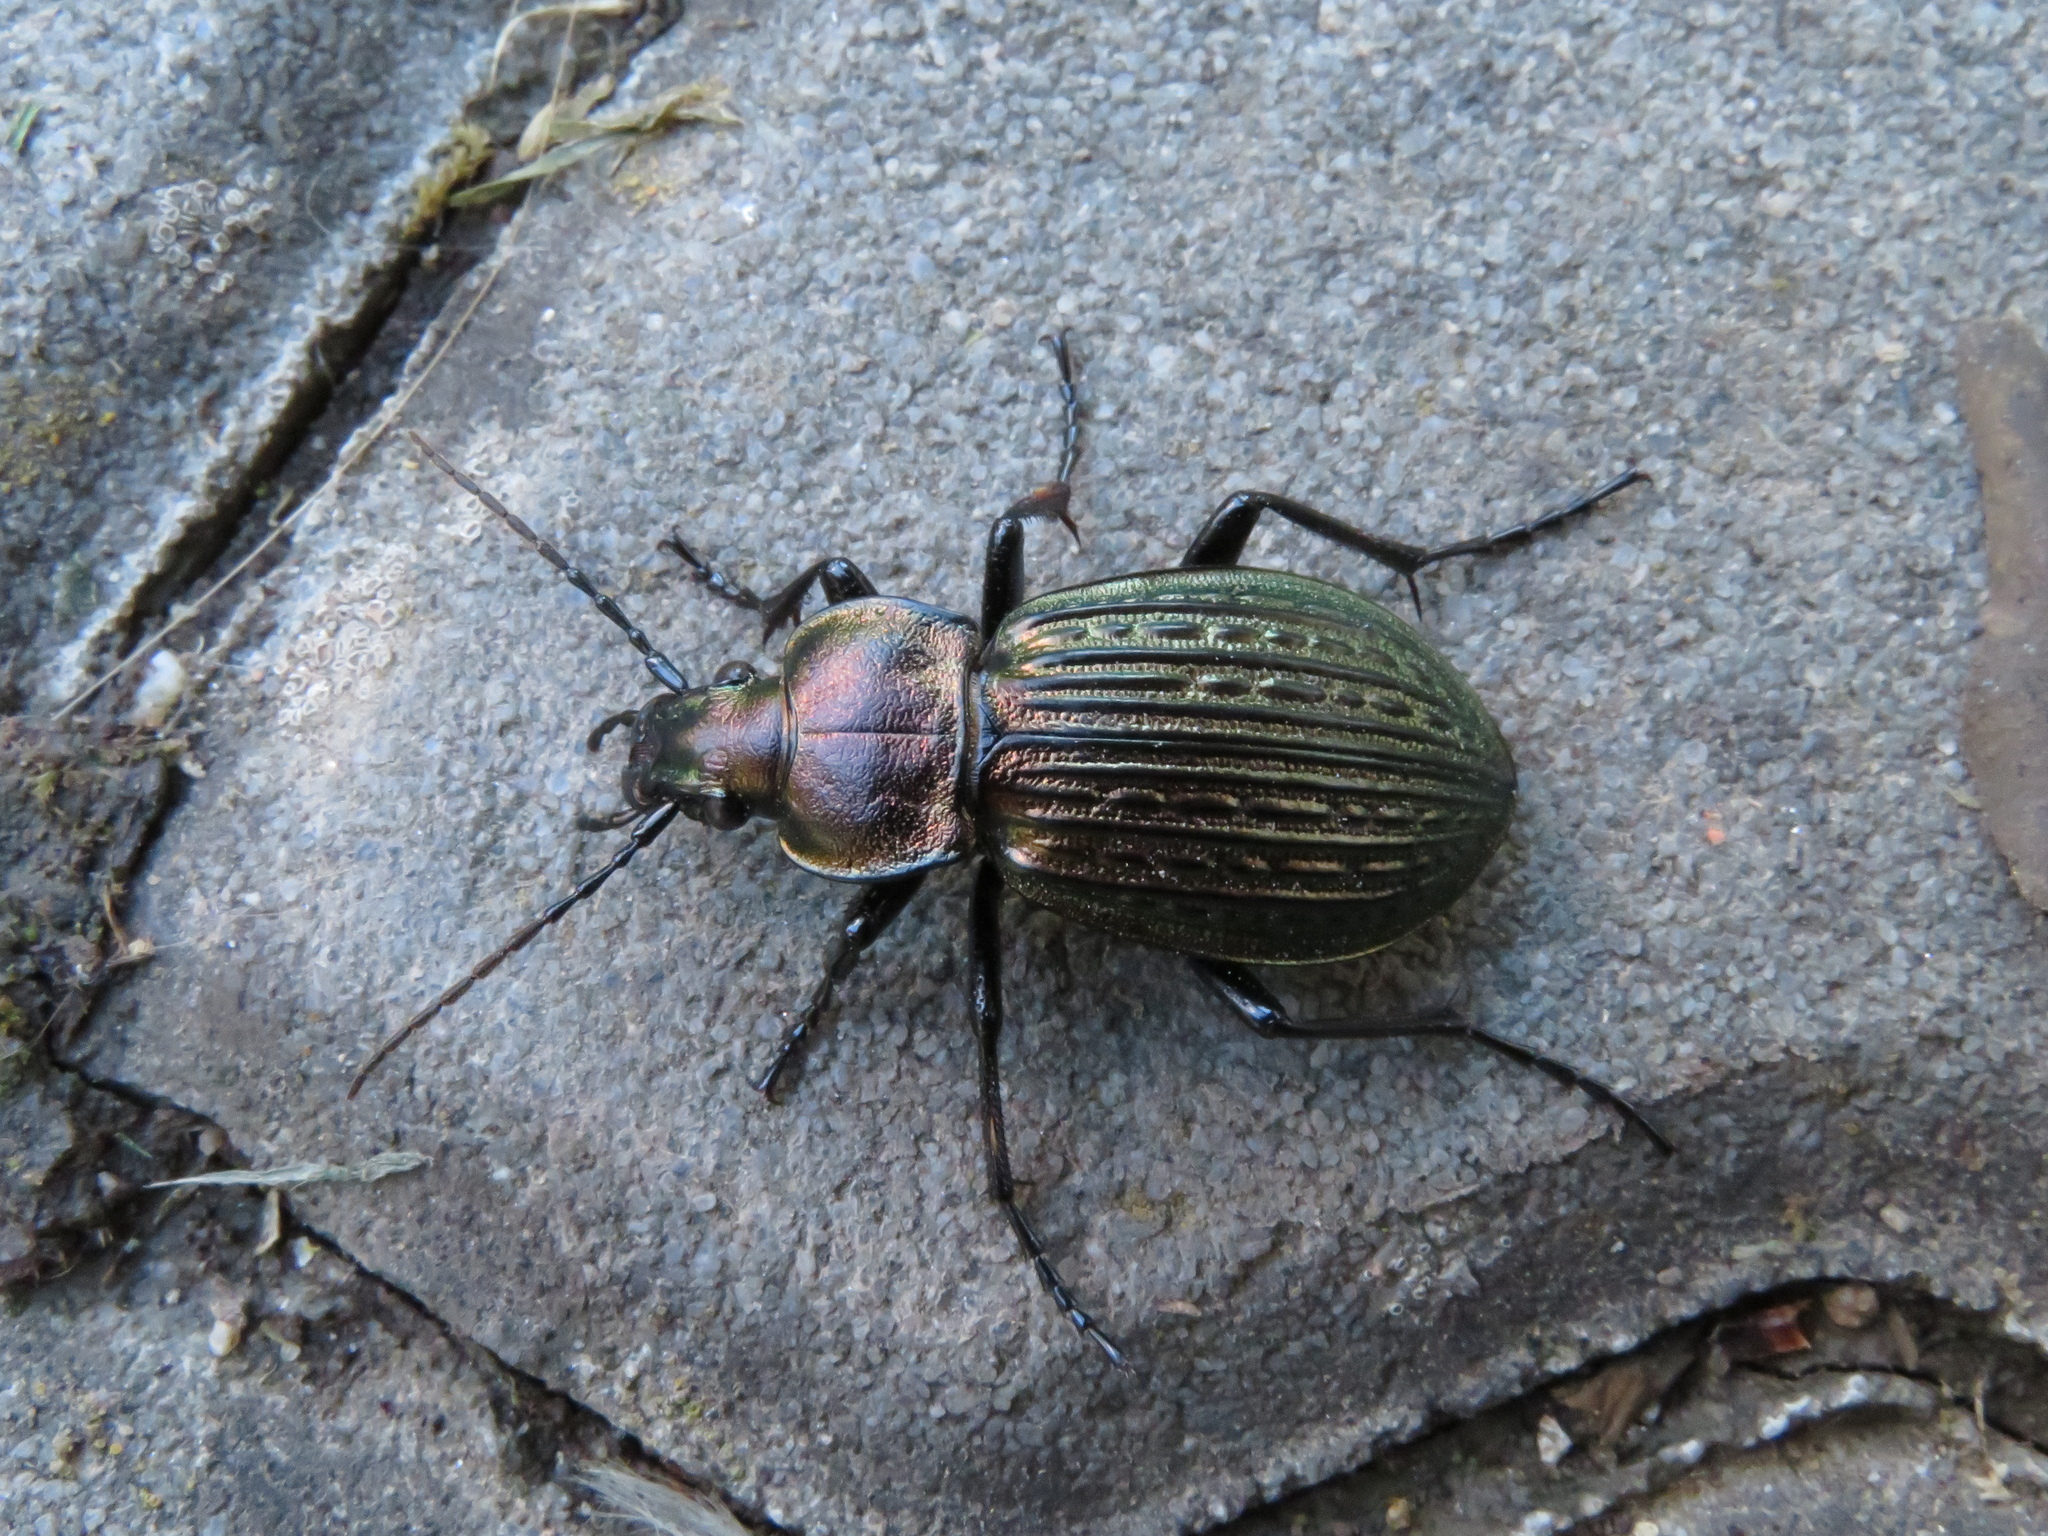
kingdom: Animalia
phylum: Arthropoda
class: Insecta
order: Coleoptera
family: Carabidae
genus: Carabus
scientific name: Carabus ulrichii
